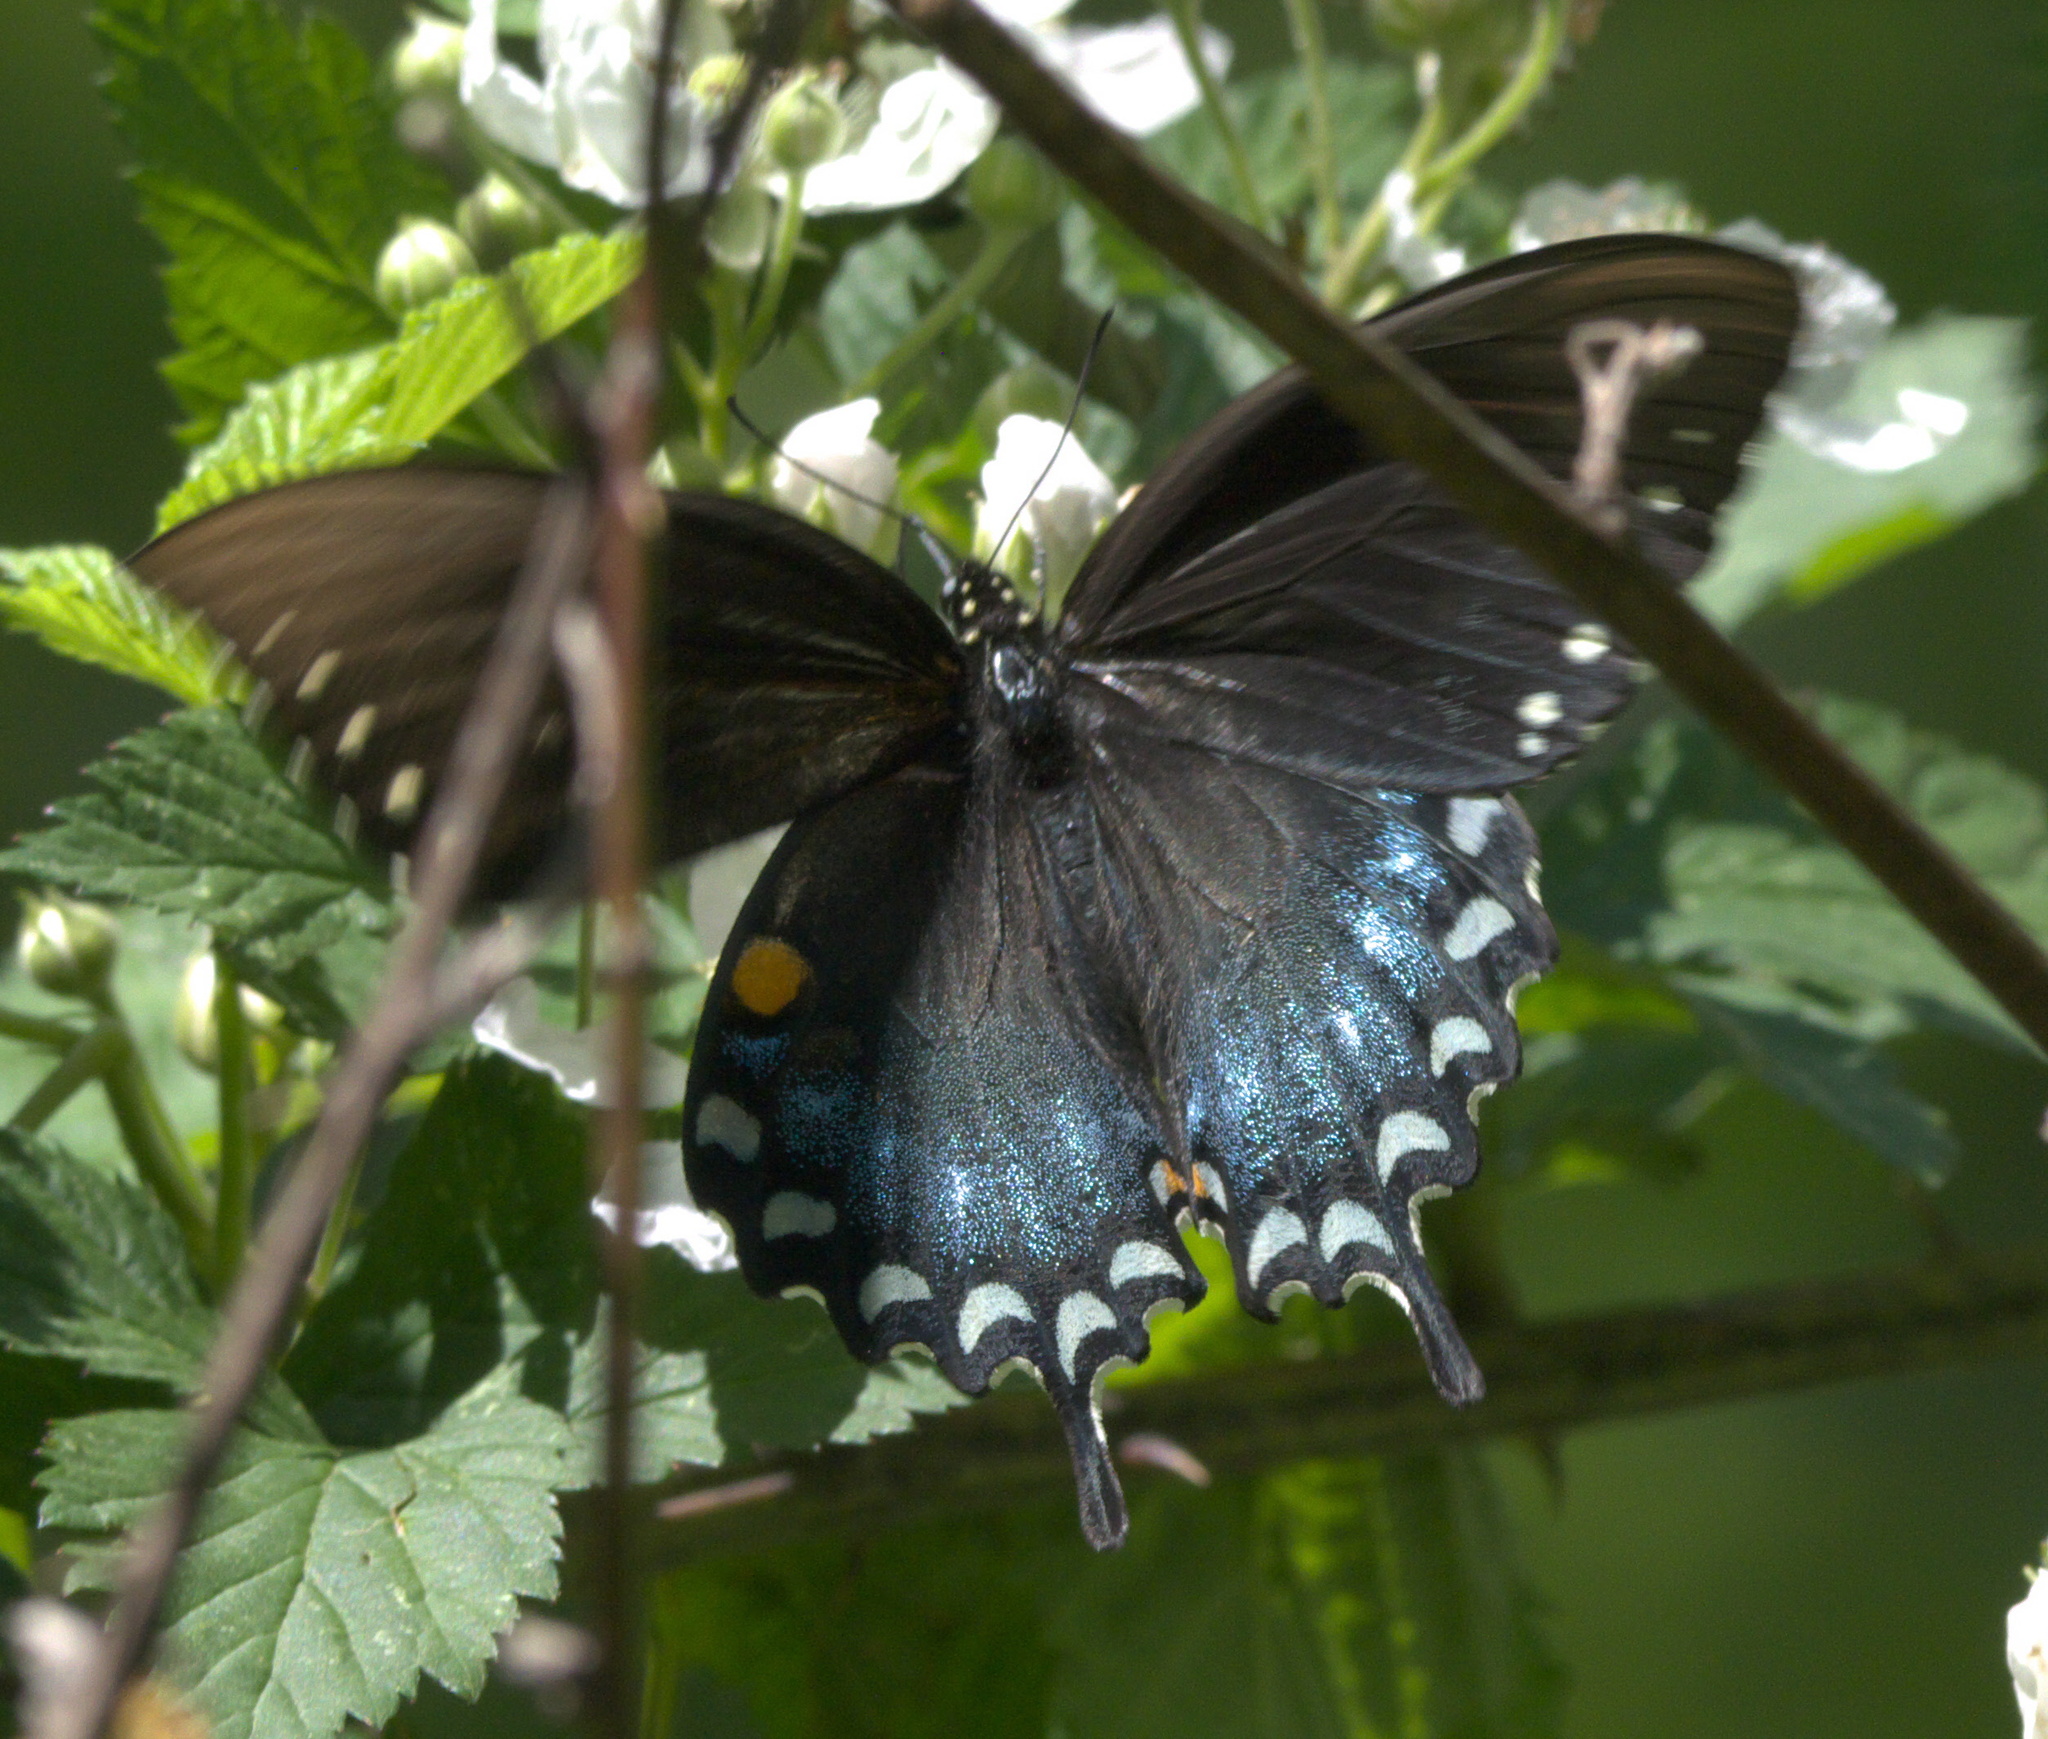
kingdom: Animalia
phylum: Arthropoda
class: Insecta
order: Lepidoptera
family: Papilionidae
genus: Papilio
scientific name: Papilio troilus
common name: Spicebush swallowtail
